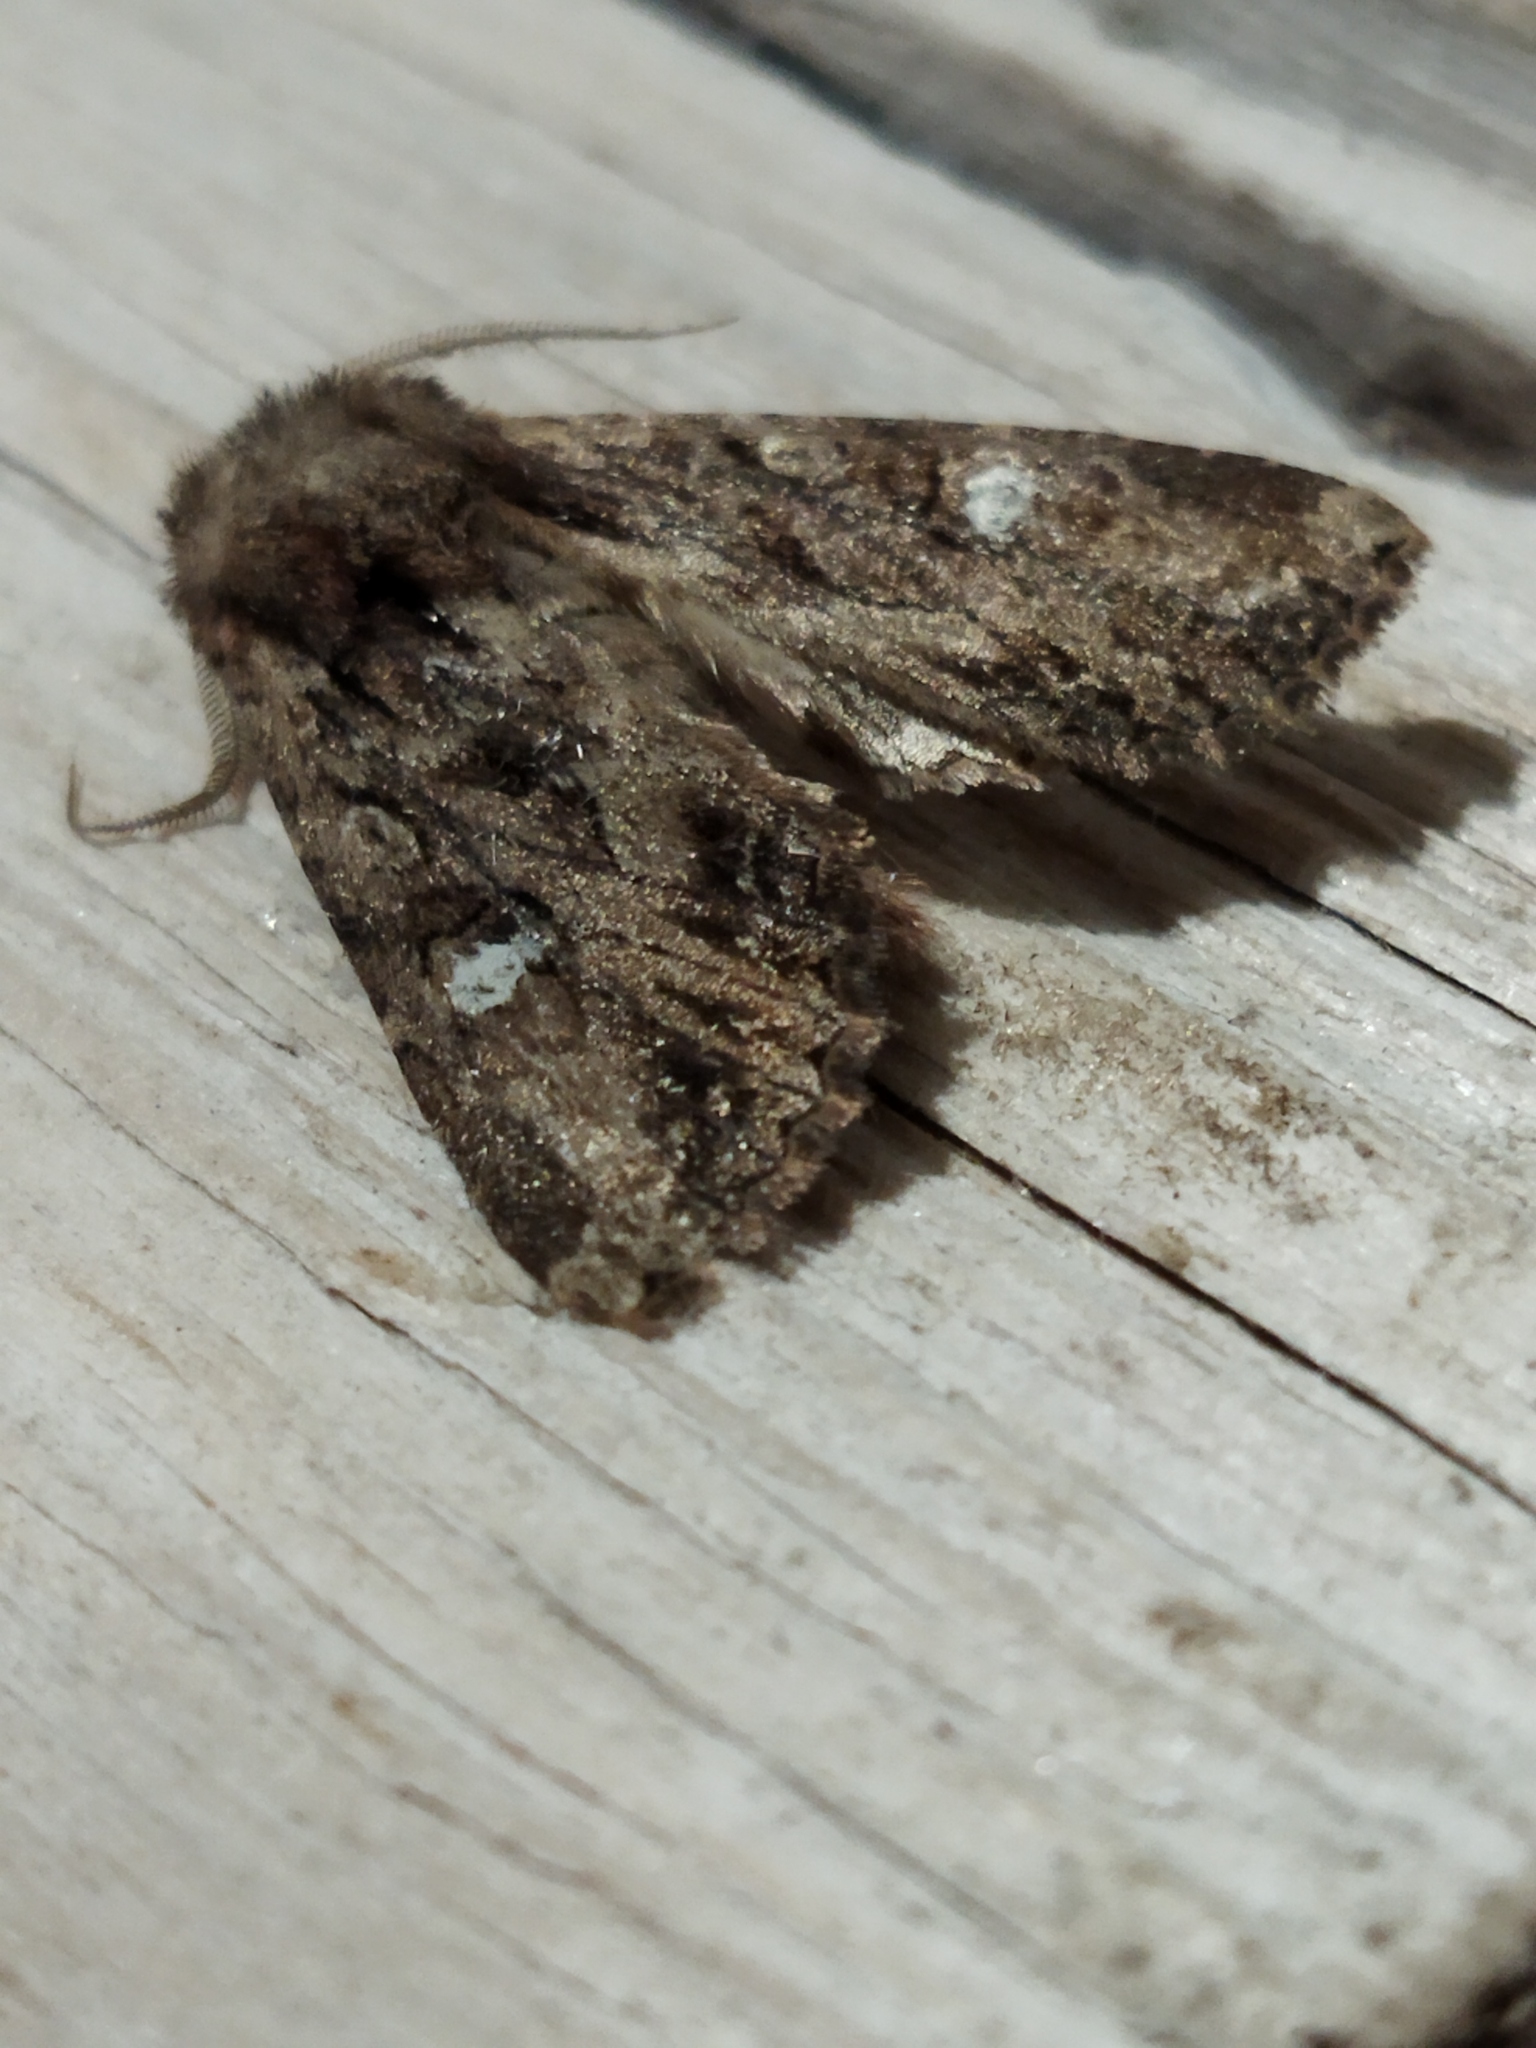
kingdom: Animalia
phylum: Arthropoda
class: Insecta
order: Lepidoptera
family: Noctuidae
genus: Polymixis
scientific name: Polymixis trisignata
